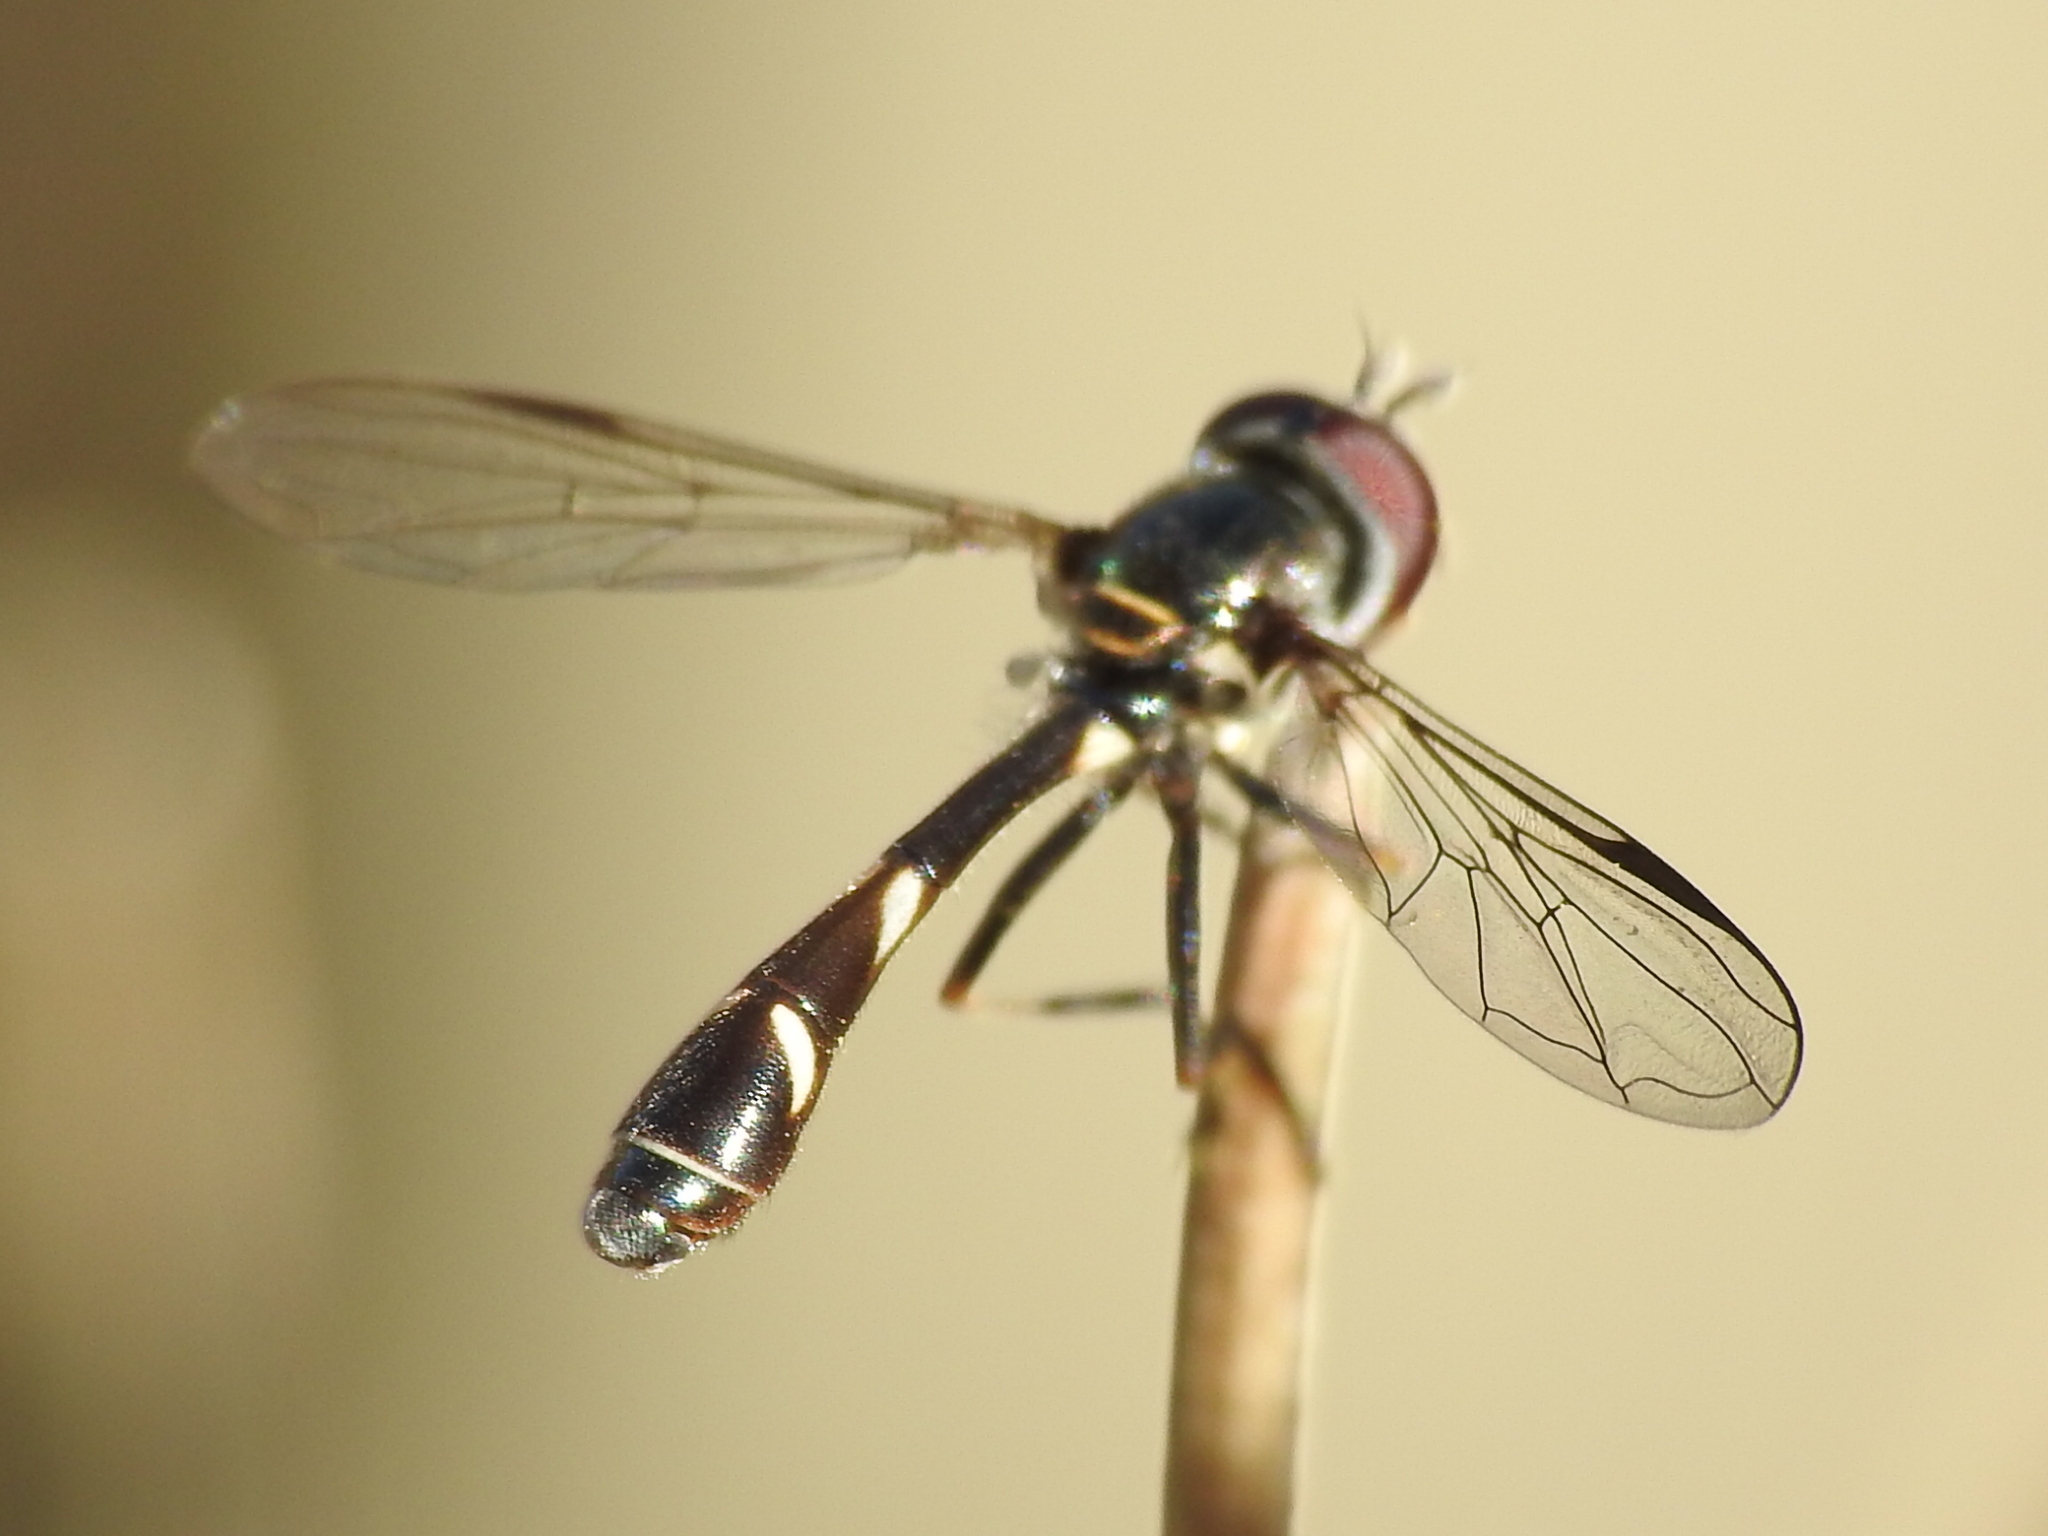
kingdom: Animalia
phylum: Arthropoda
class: Insecta
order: Diptera
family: Syrphidae
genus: Dioprosopa
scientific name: Dioprosopa clavatus
